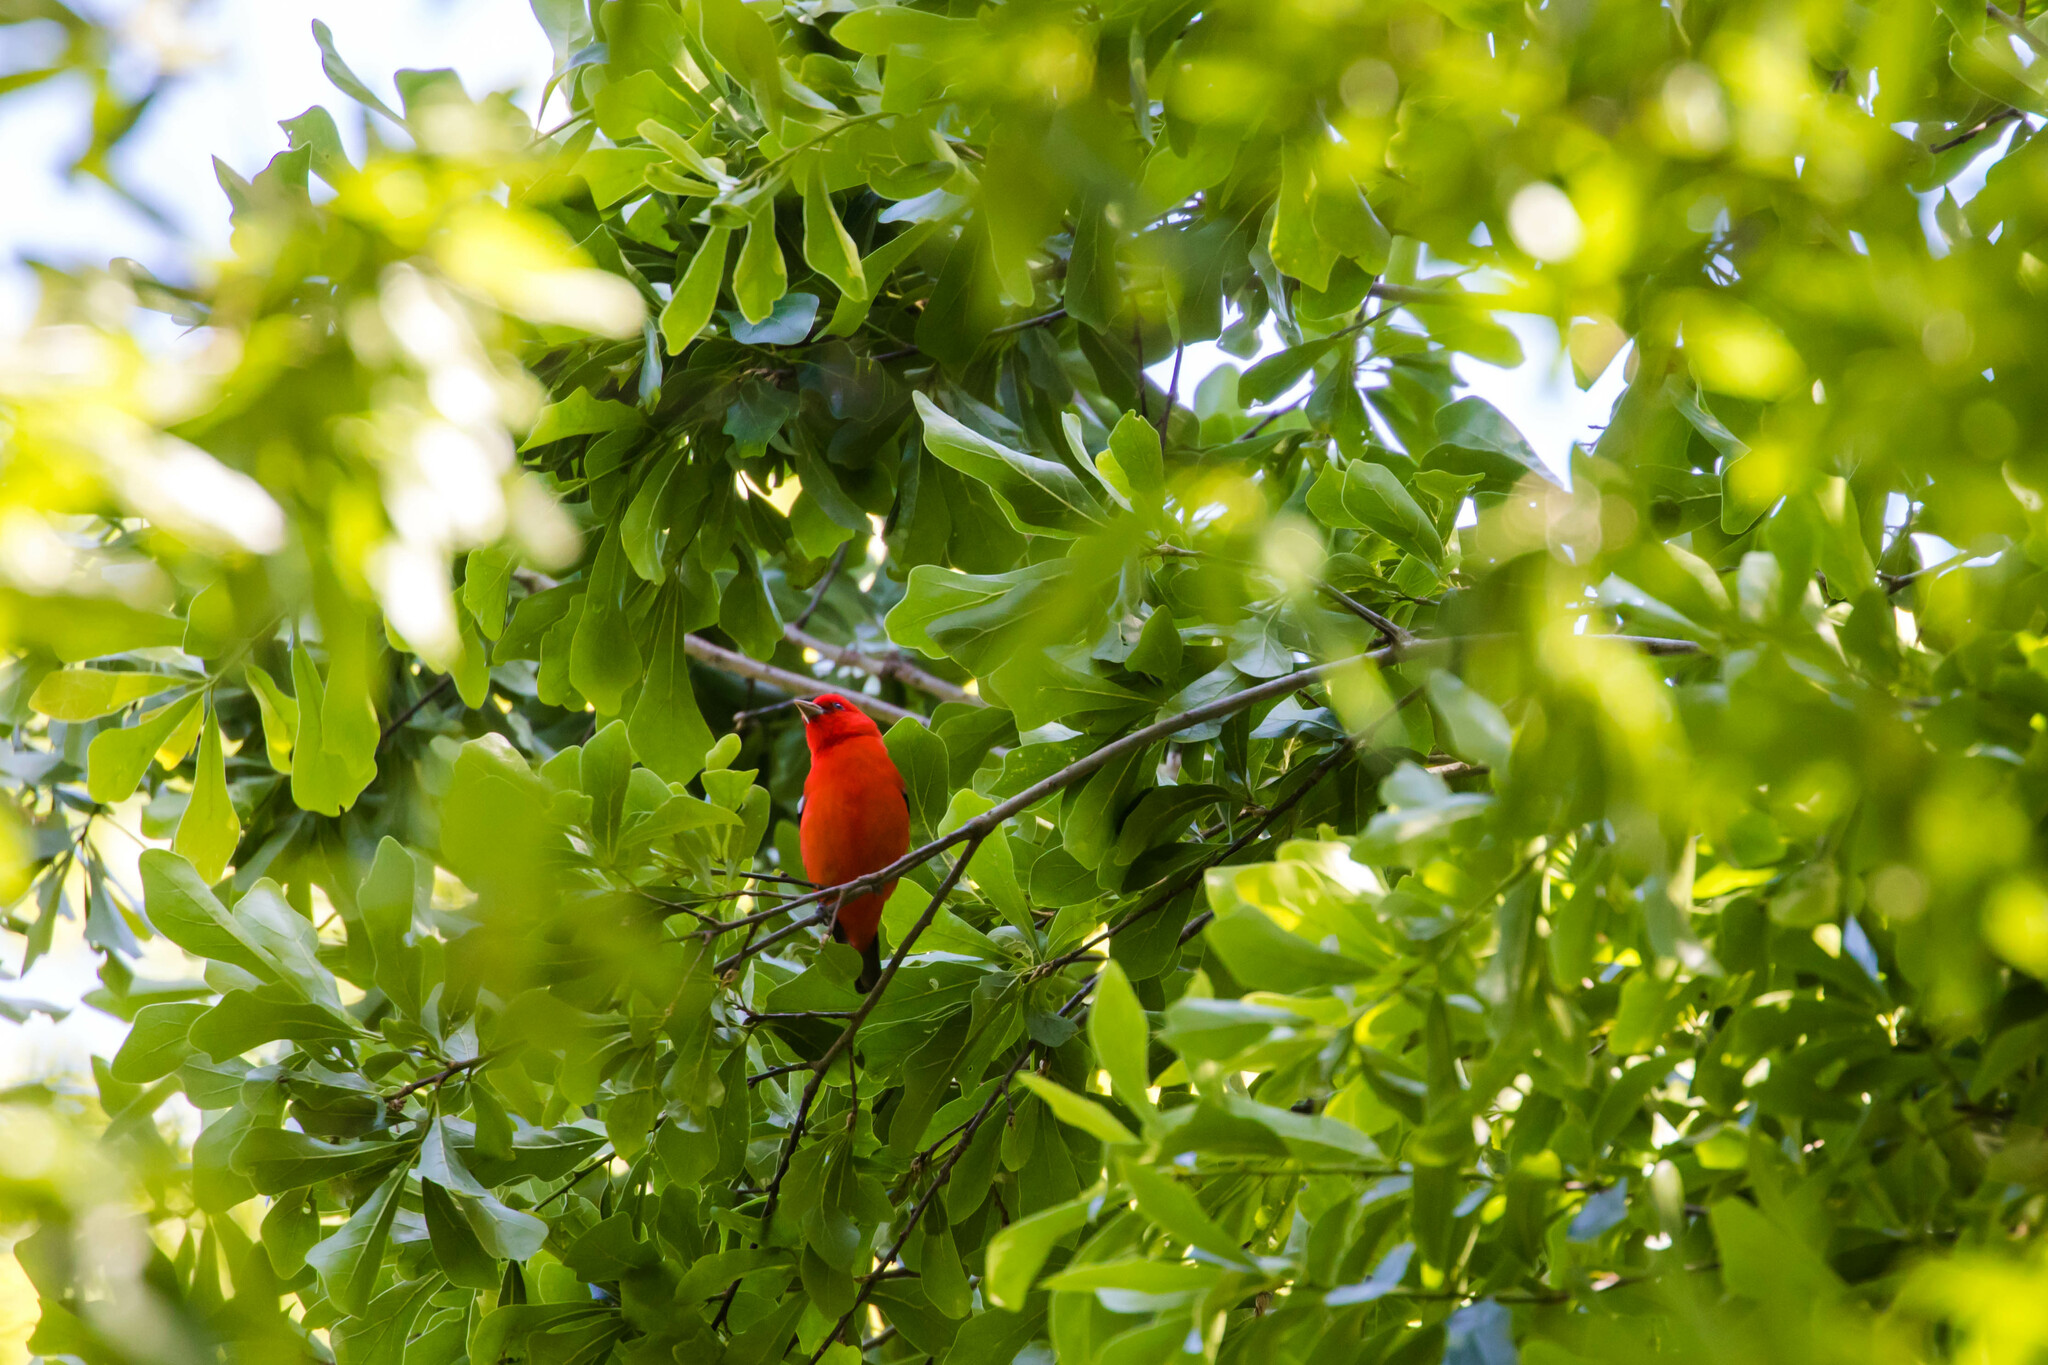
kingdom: Animalia
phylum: Chordata
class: Aves
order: Passeriformes
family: Cardinalidae
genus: Piranga
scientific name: Piranga olivacea
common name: Scarlet tanager
